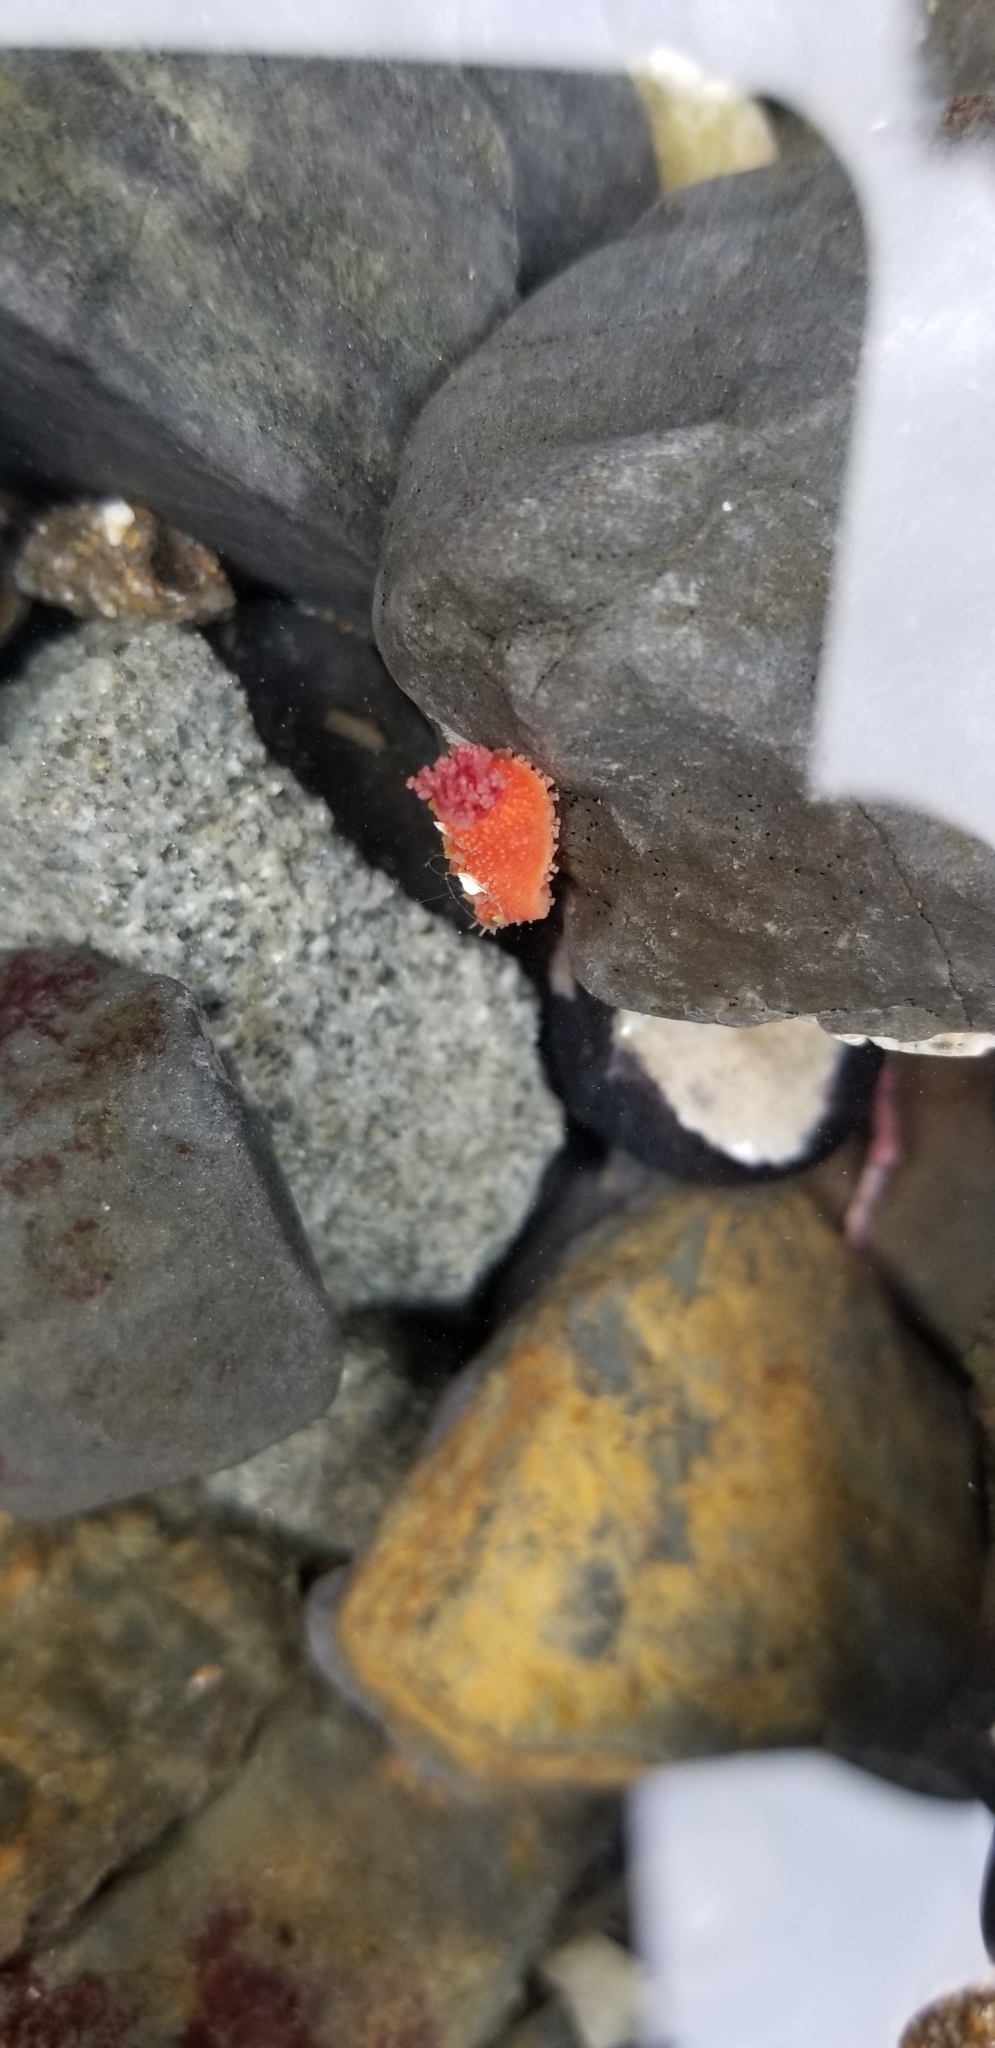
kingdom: Animalia
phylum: Echinodermata
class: Holothuroidea
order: Dendrochirotida
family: Psolidae
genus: Lissothuria
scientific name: Lissothuria nutriens
